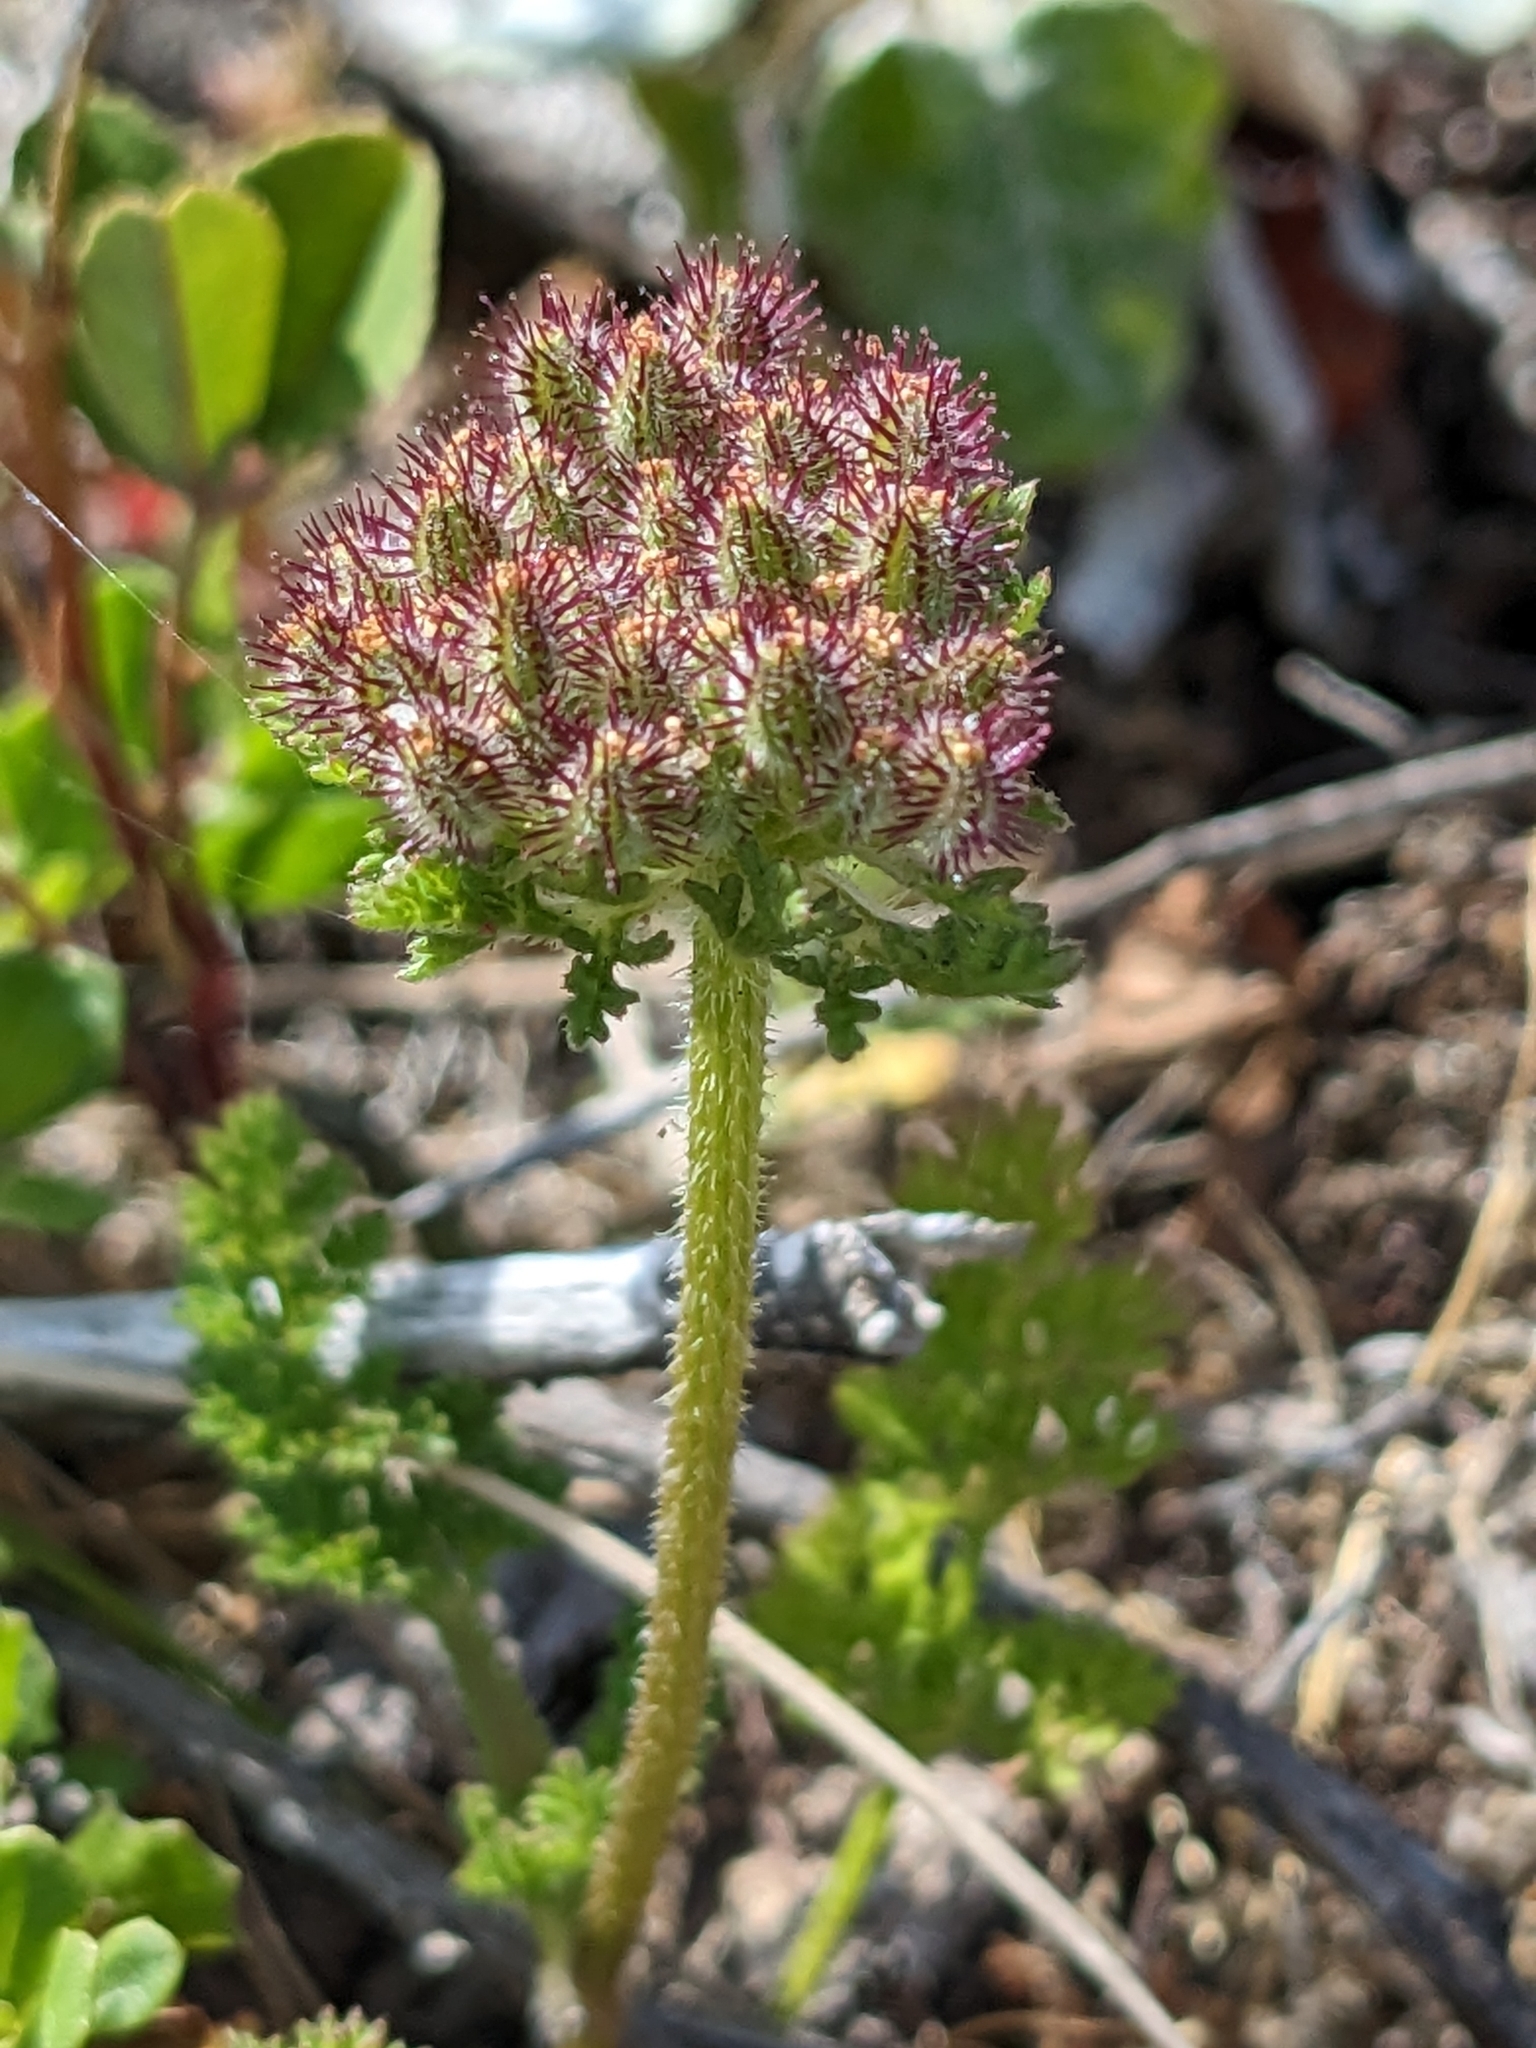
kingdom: Plantae
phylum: Tracheophyta
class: Magnoliopsida
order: Apiales
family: Apiaceae
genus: Daucus
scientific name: Daucus pusillus
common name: Southwest wild carrot
